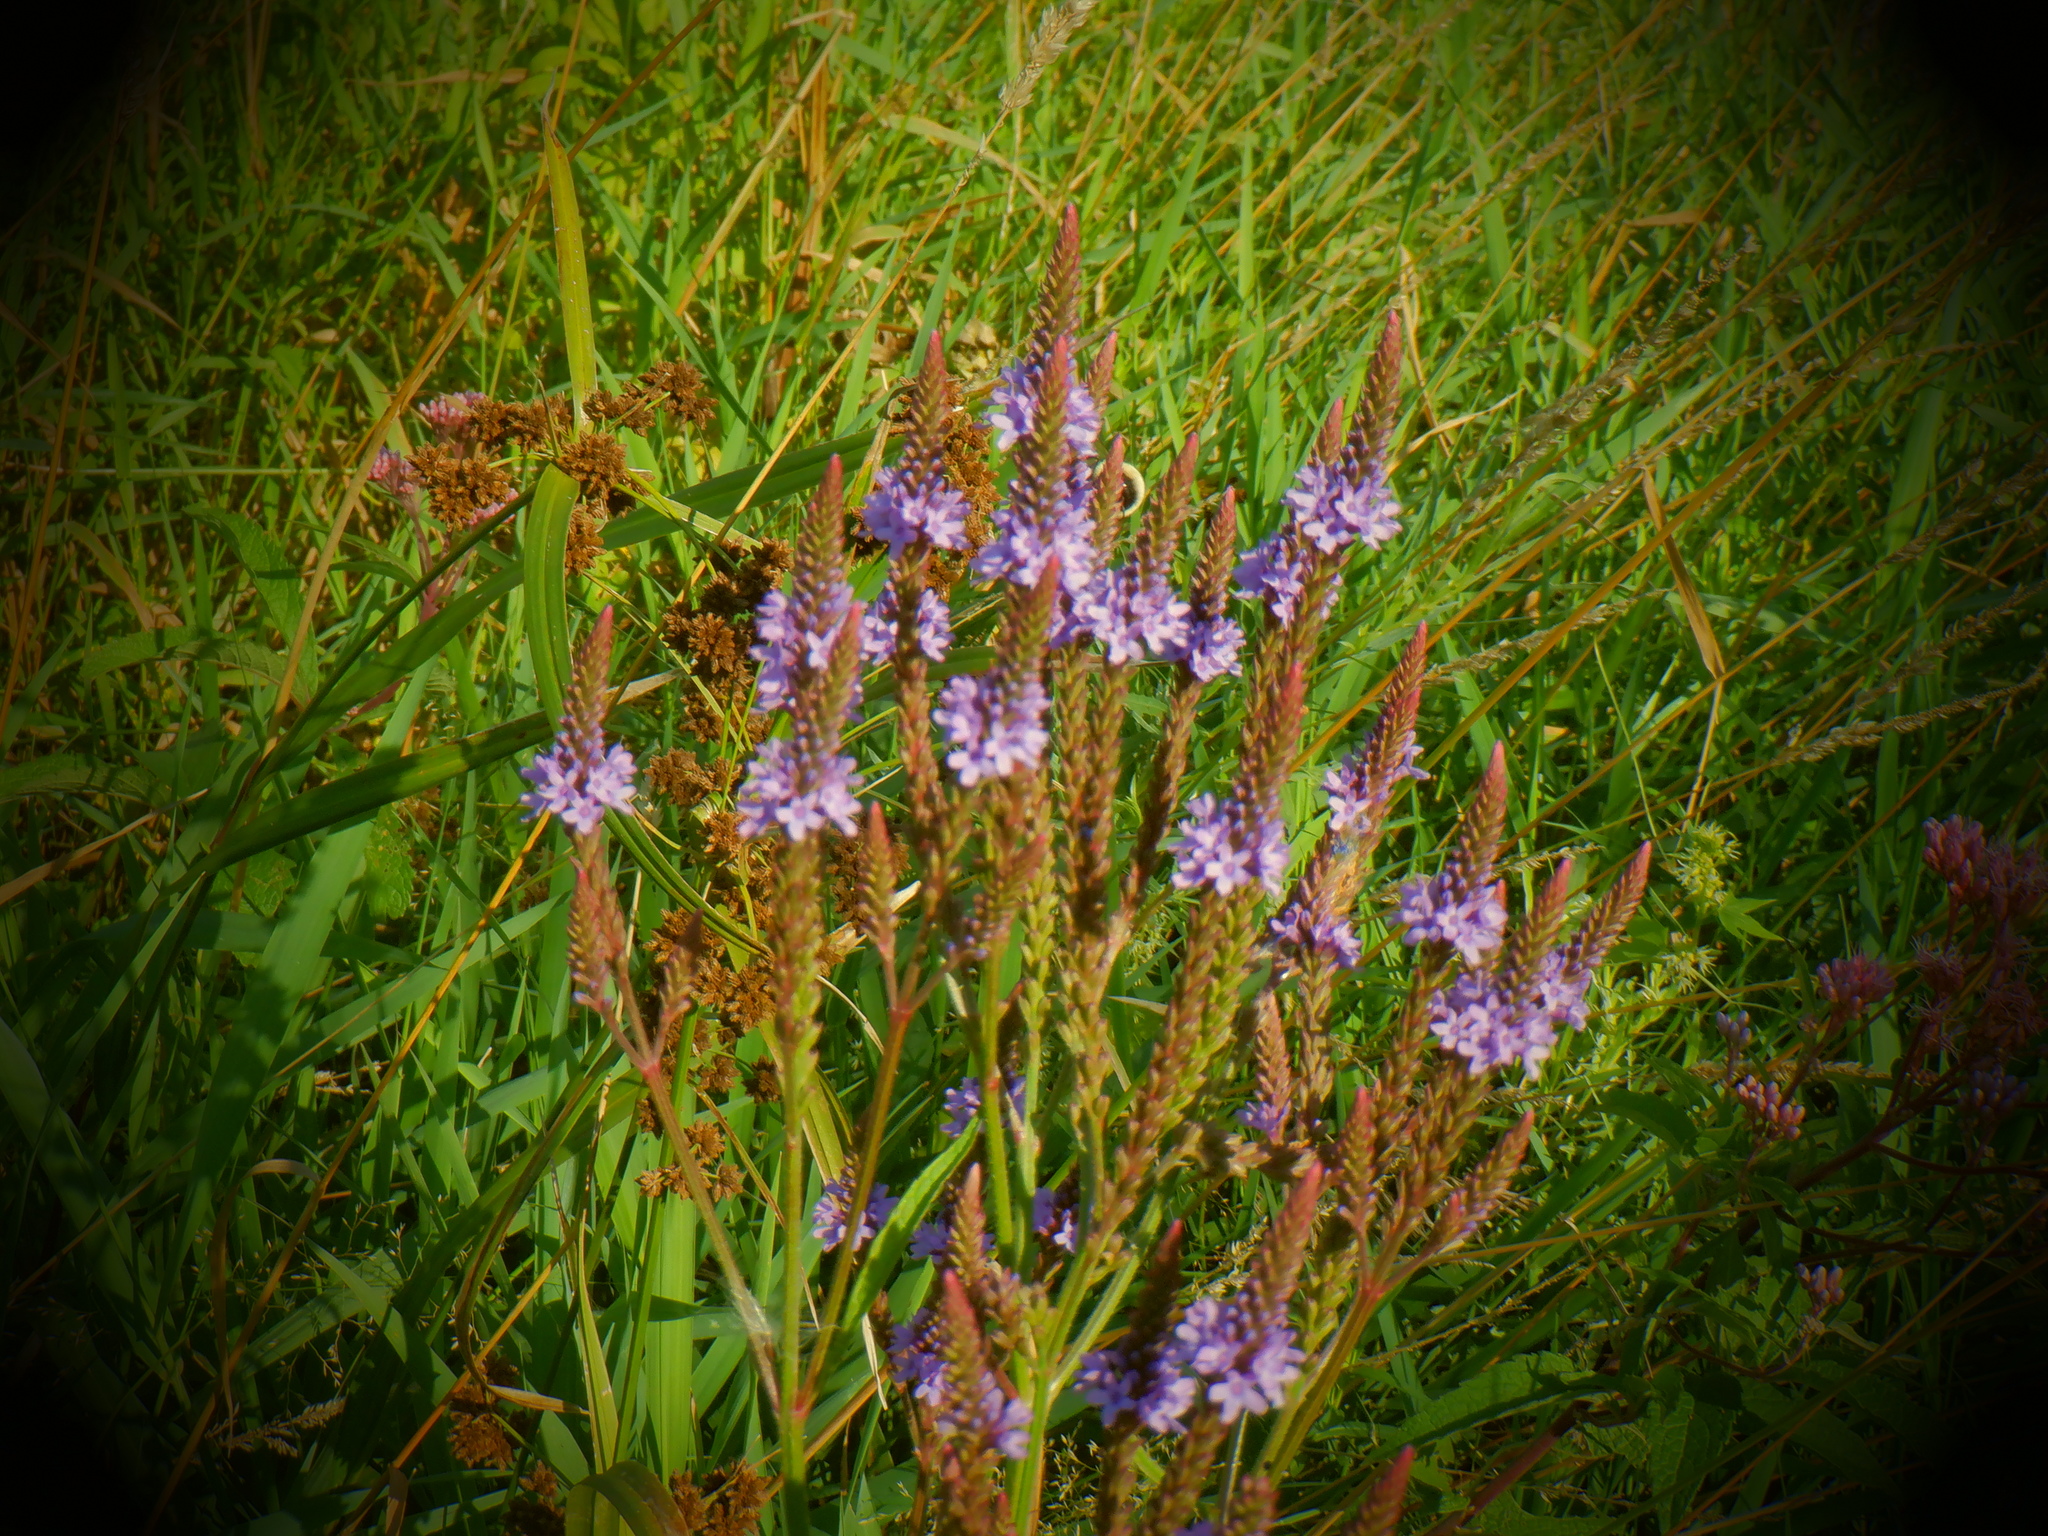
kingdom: Plantae
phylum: Tracheophyta
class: Magnoliopsida
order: Lamiales
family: Verbenaceae
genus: Verbena
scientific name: Verbena hastata
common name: American blue vervain
